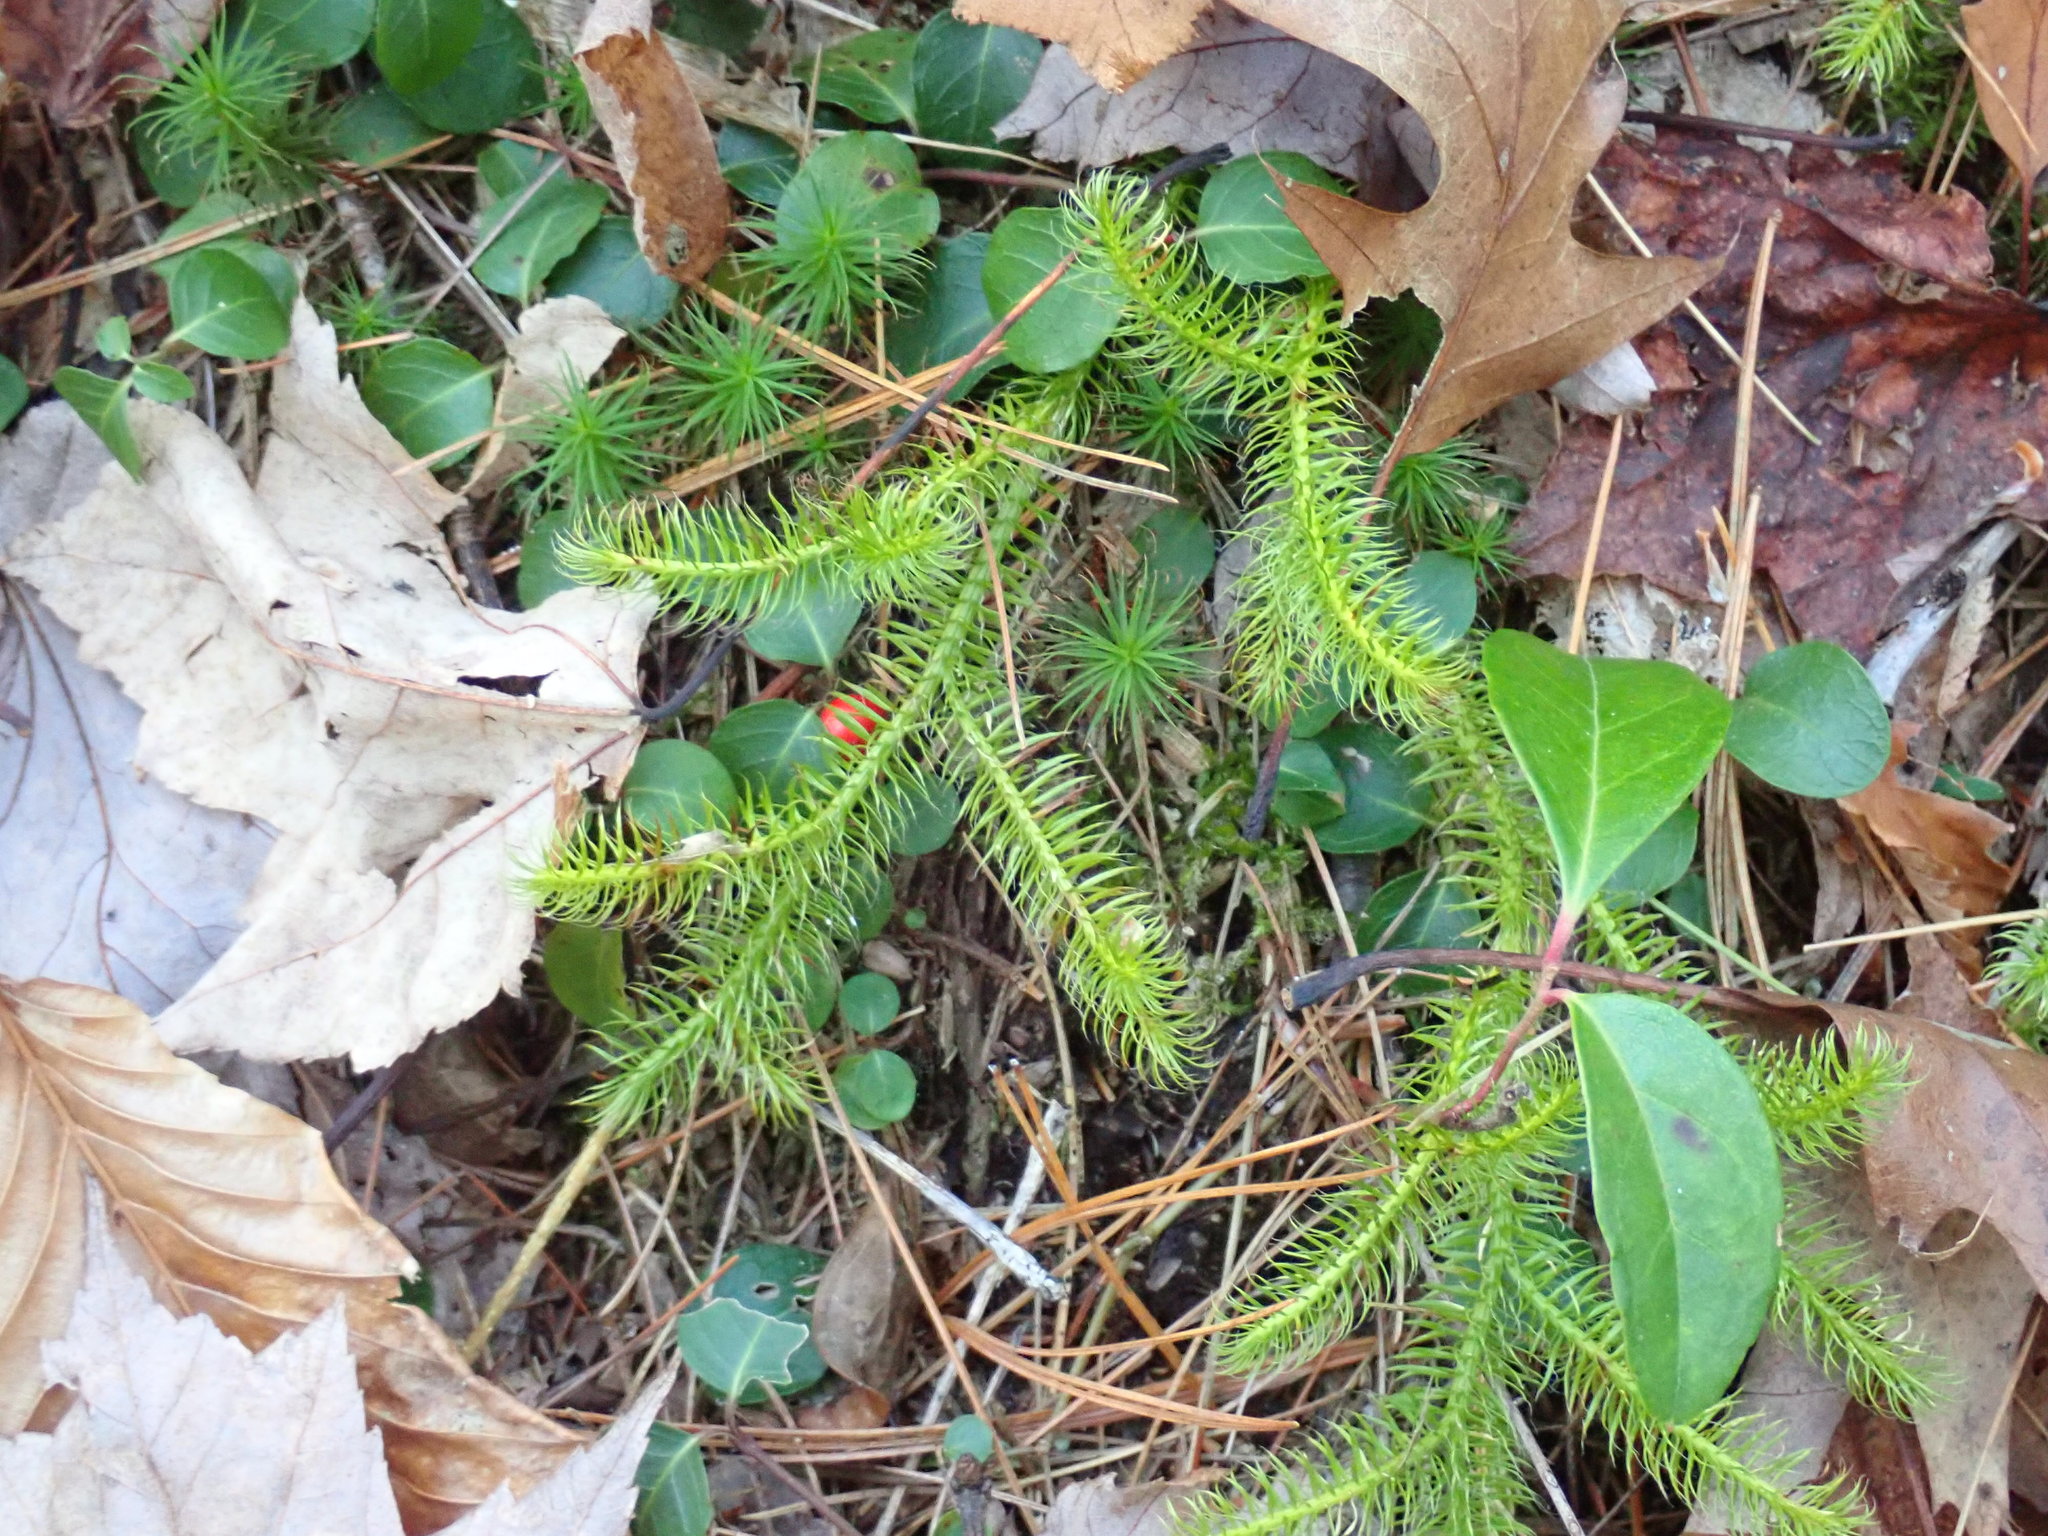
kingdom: Plantae
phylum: Tracheophyta
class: Lycopodiopsida
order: Lycopodiales
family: Lycopodiaceae
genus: Lycopodium
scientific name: Lycopodium clavatum
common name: Stag's-horn clubmoss
